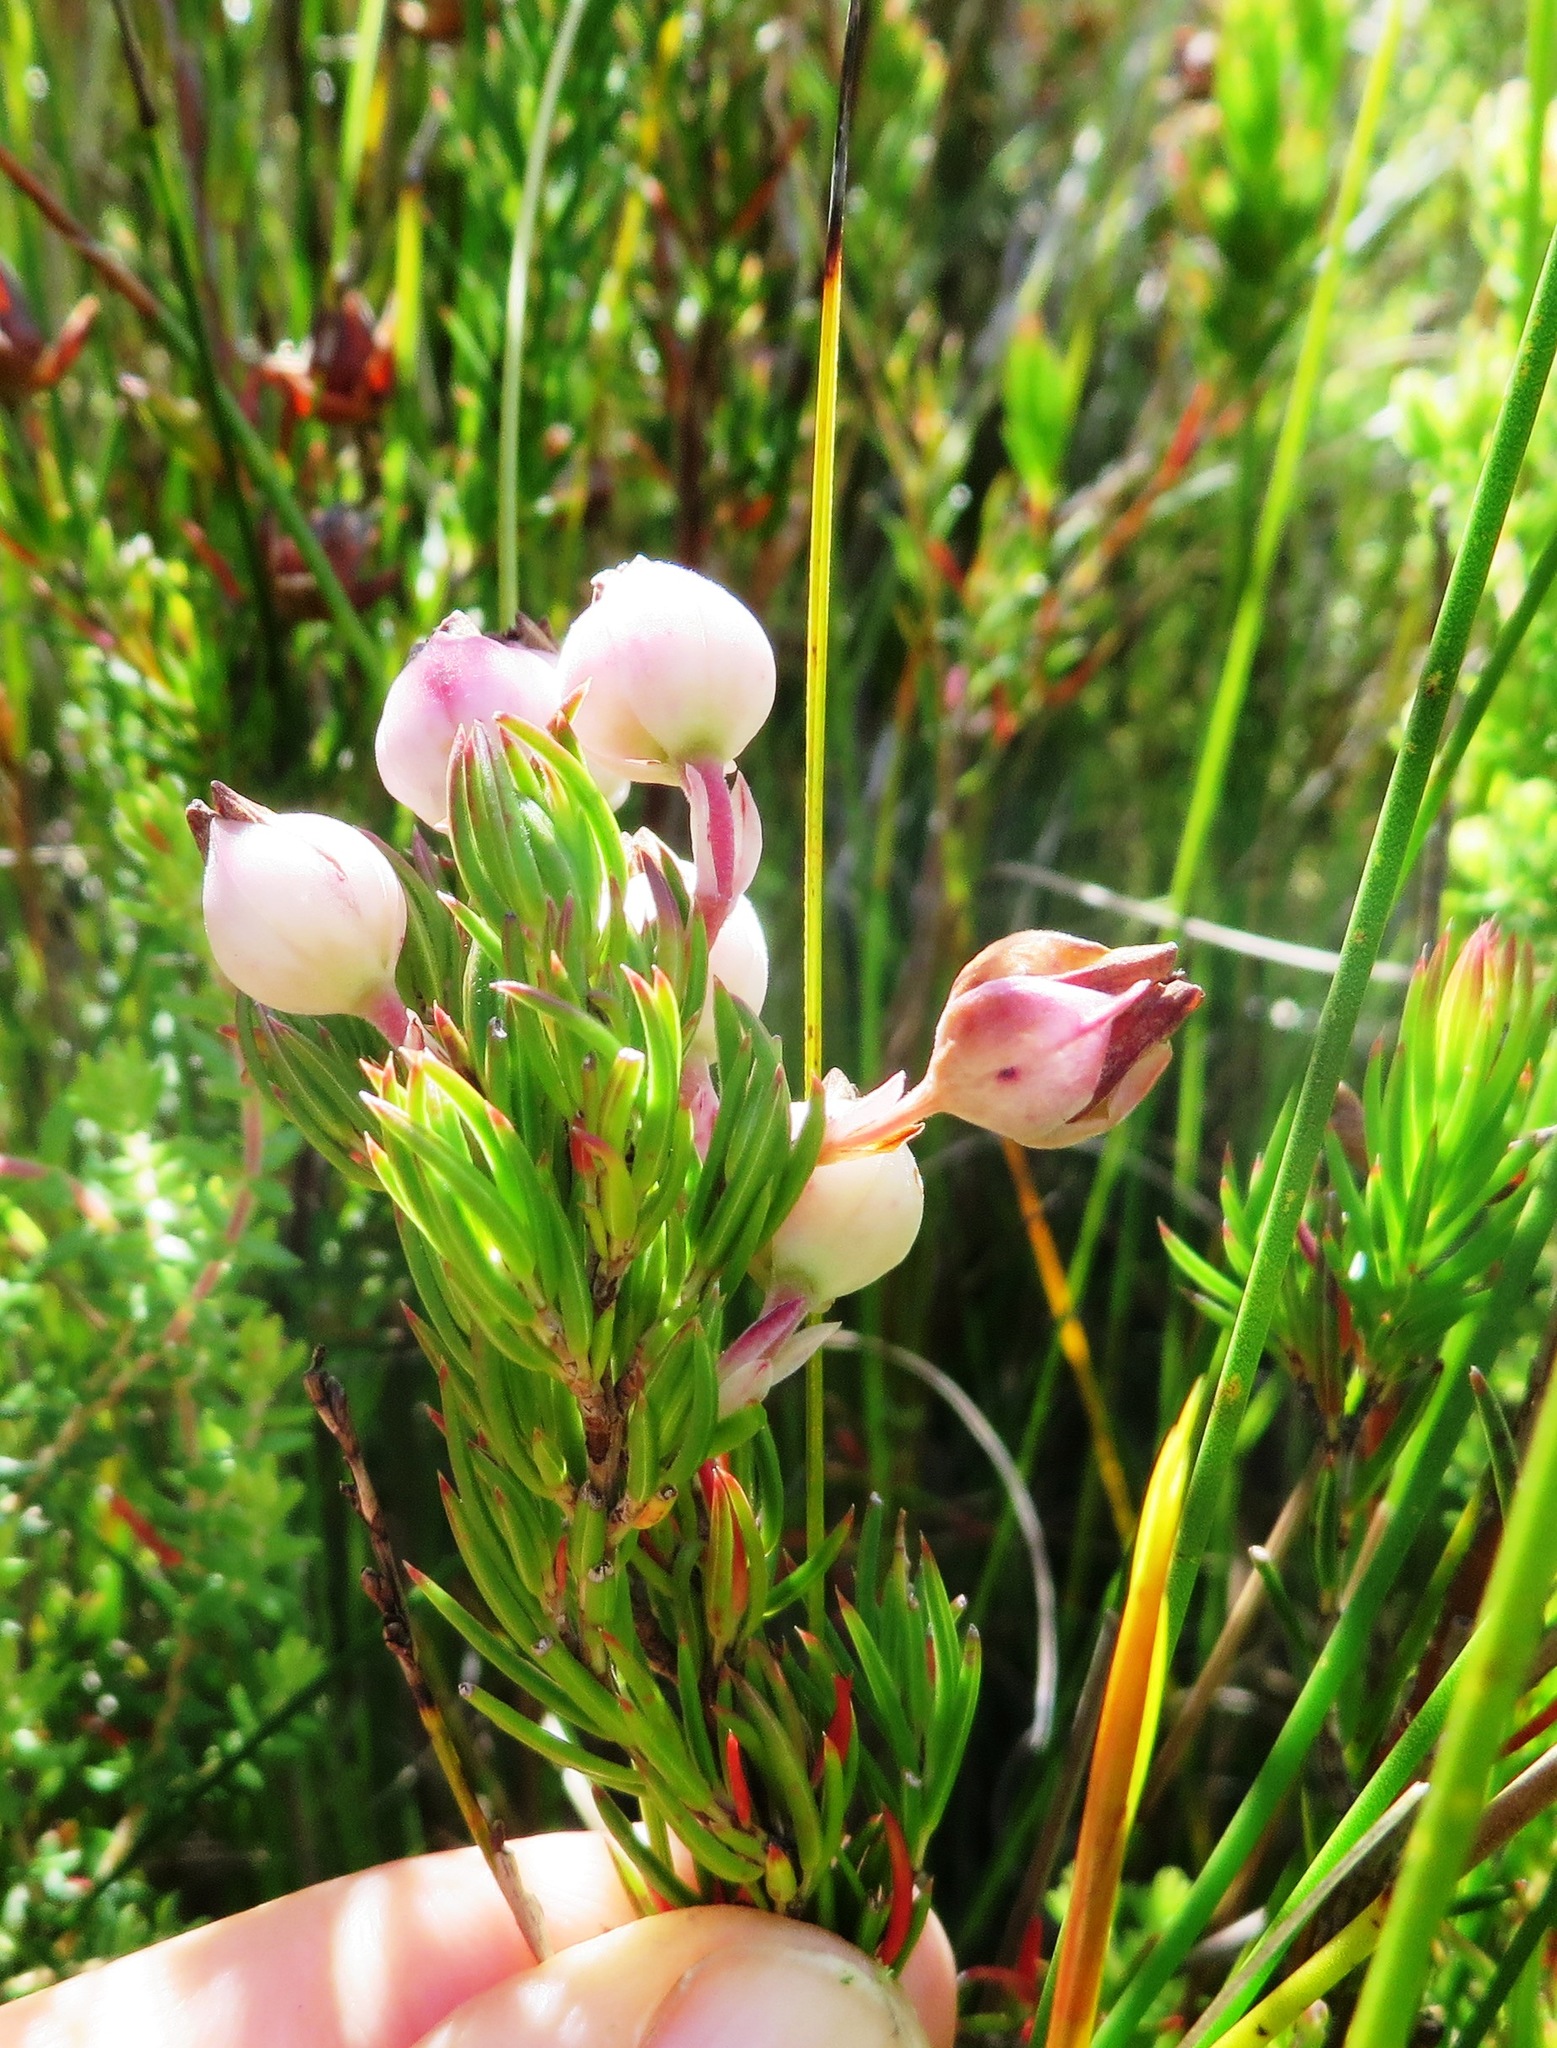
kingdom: Plantae
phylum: Tracheophyta
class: Magnoliopsida
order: Ericales
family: Ericaceae
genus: Erica
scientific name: Erica holosericea
